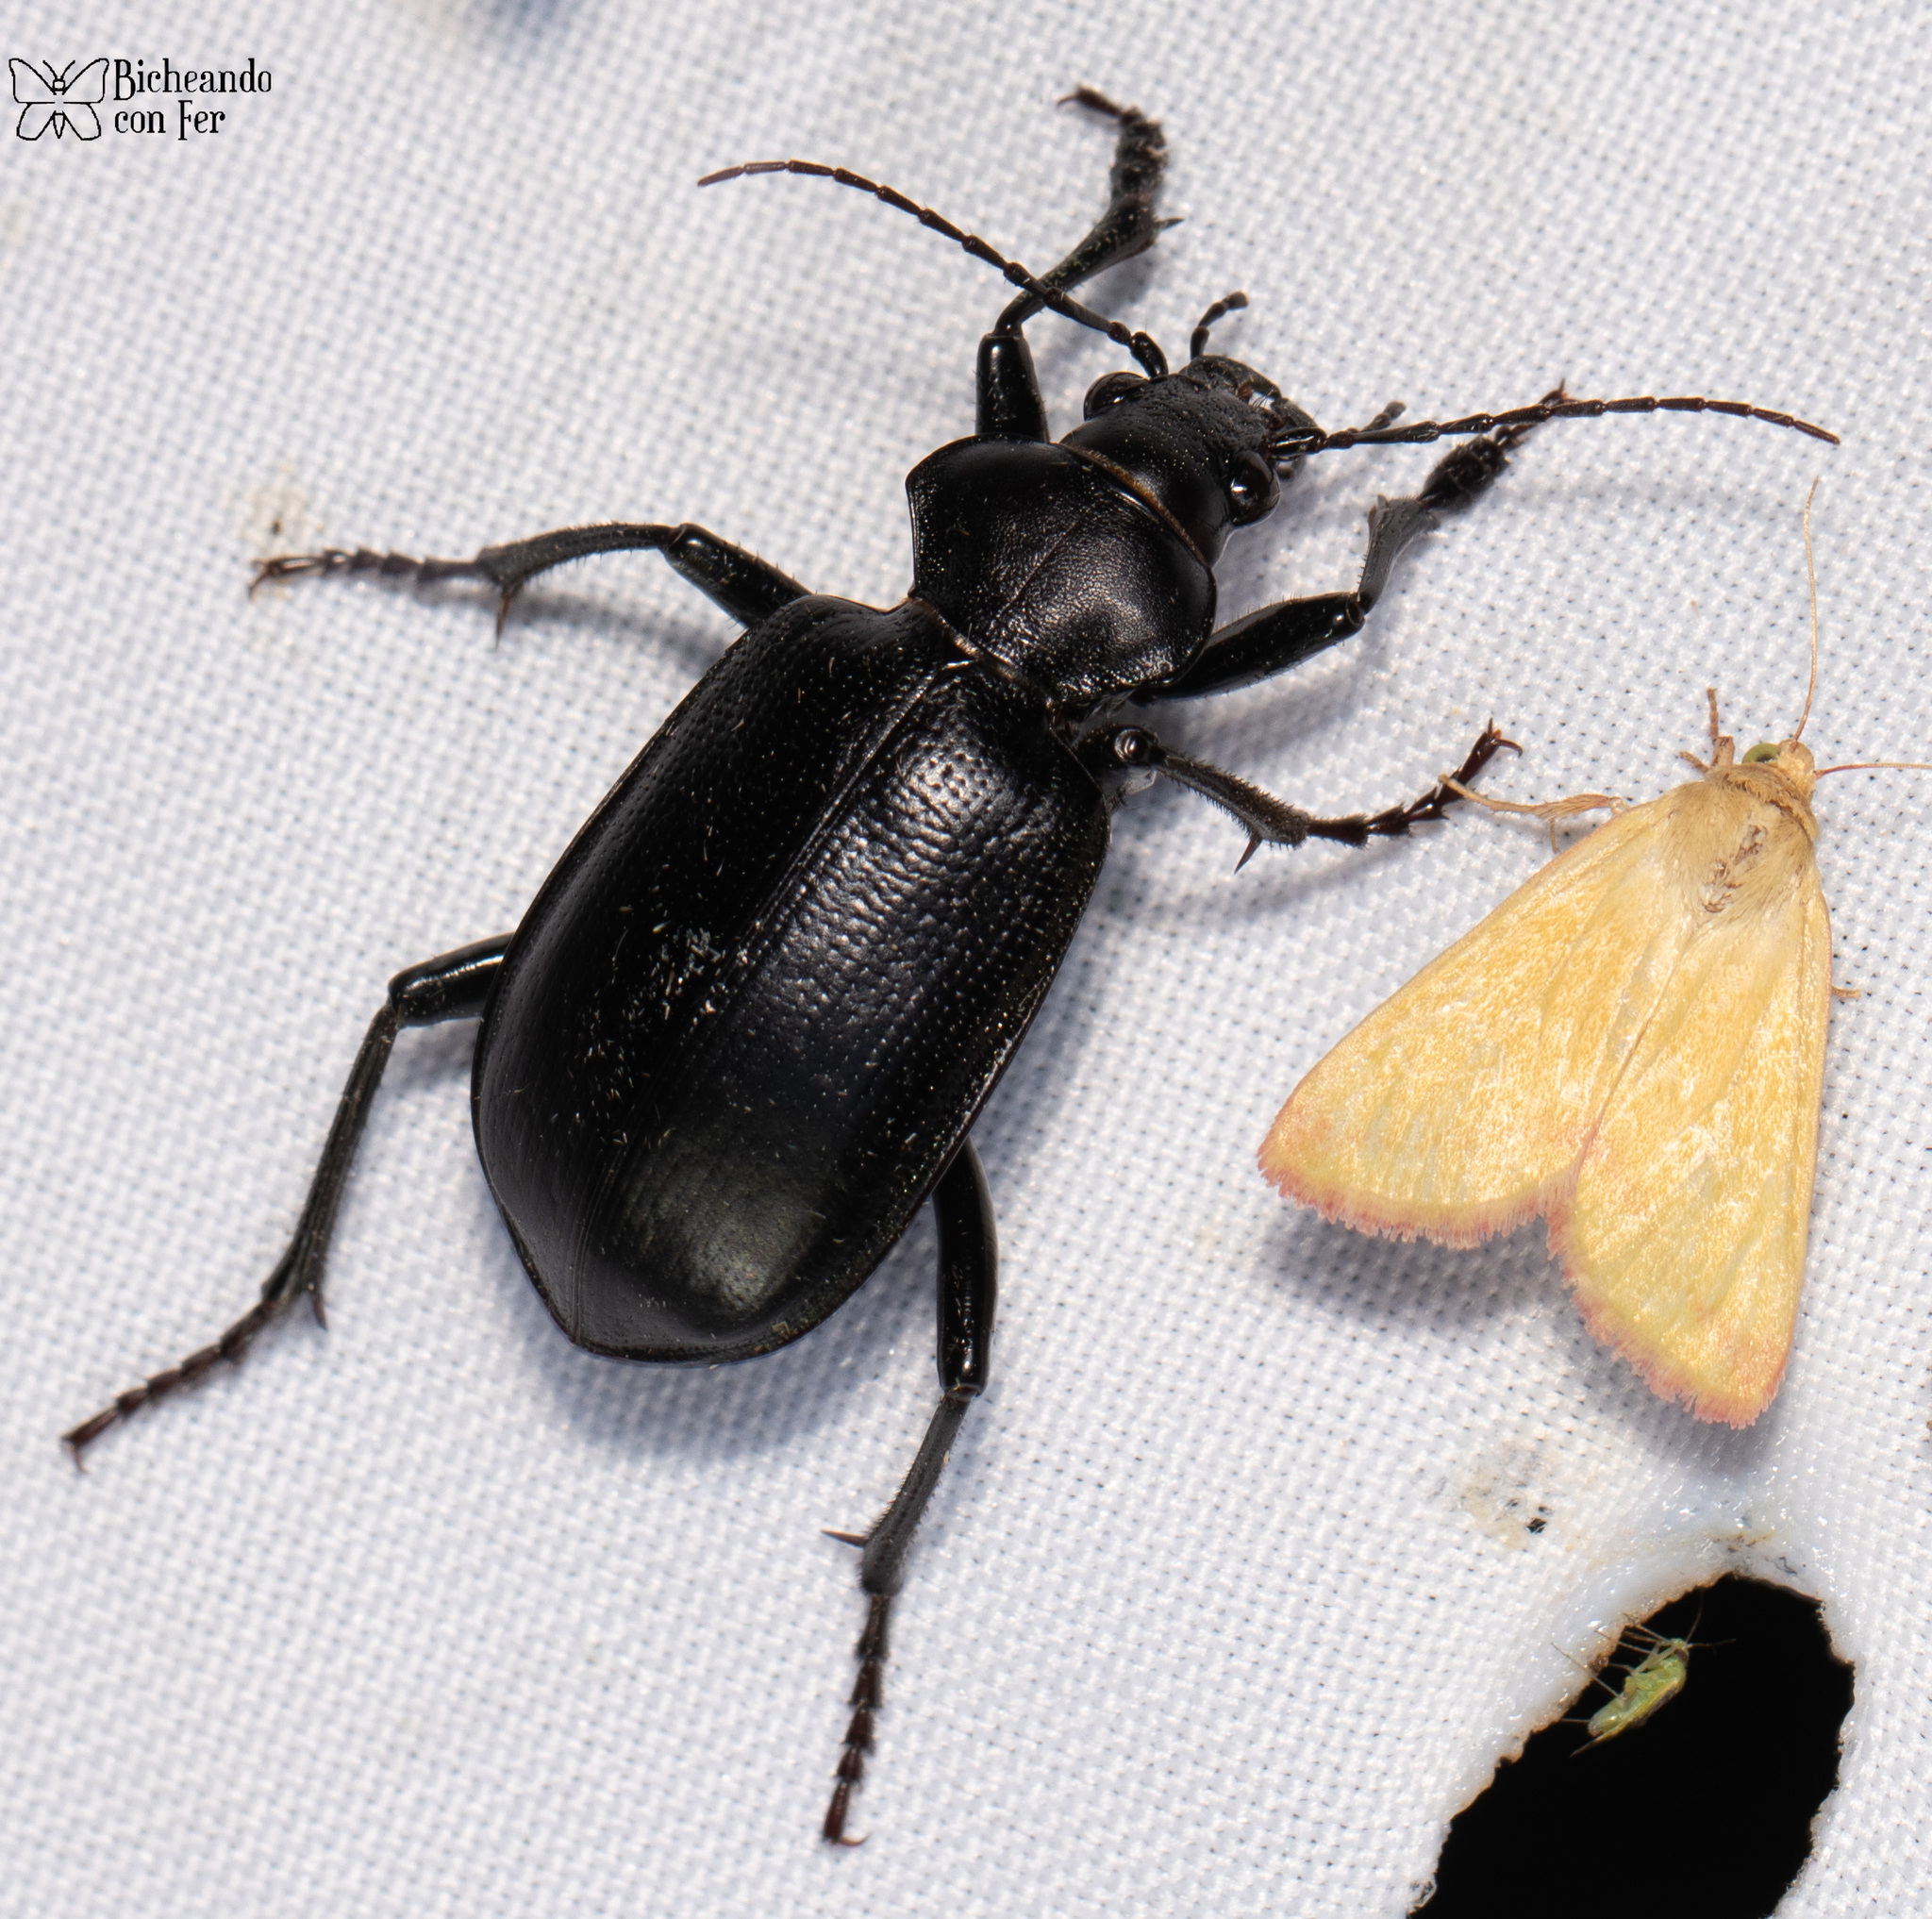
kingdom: Animalia
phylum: Arthropoda
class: Insecta
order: Coleoptera
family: Carabidae
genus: Calosoma
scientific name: Calosoma prominens
